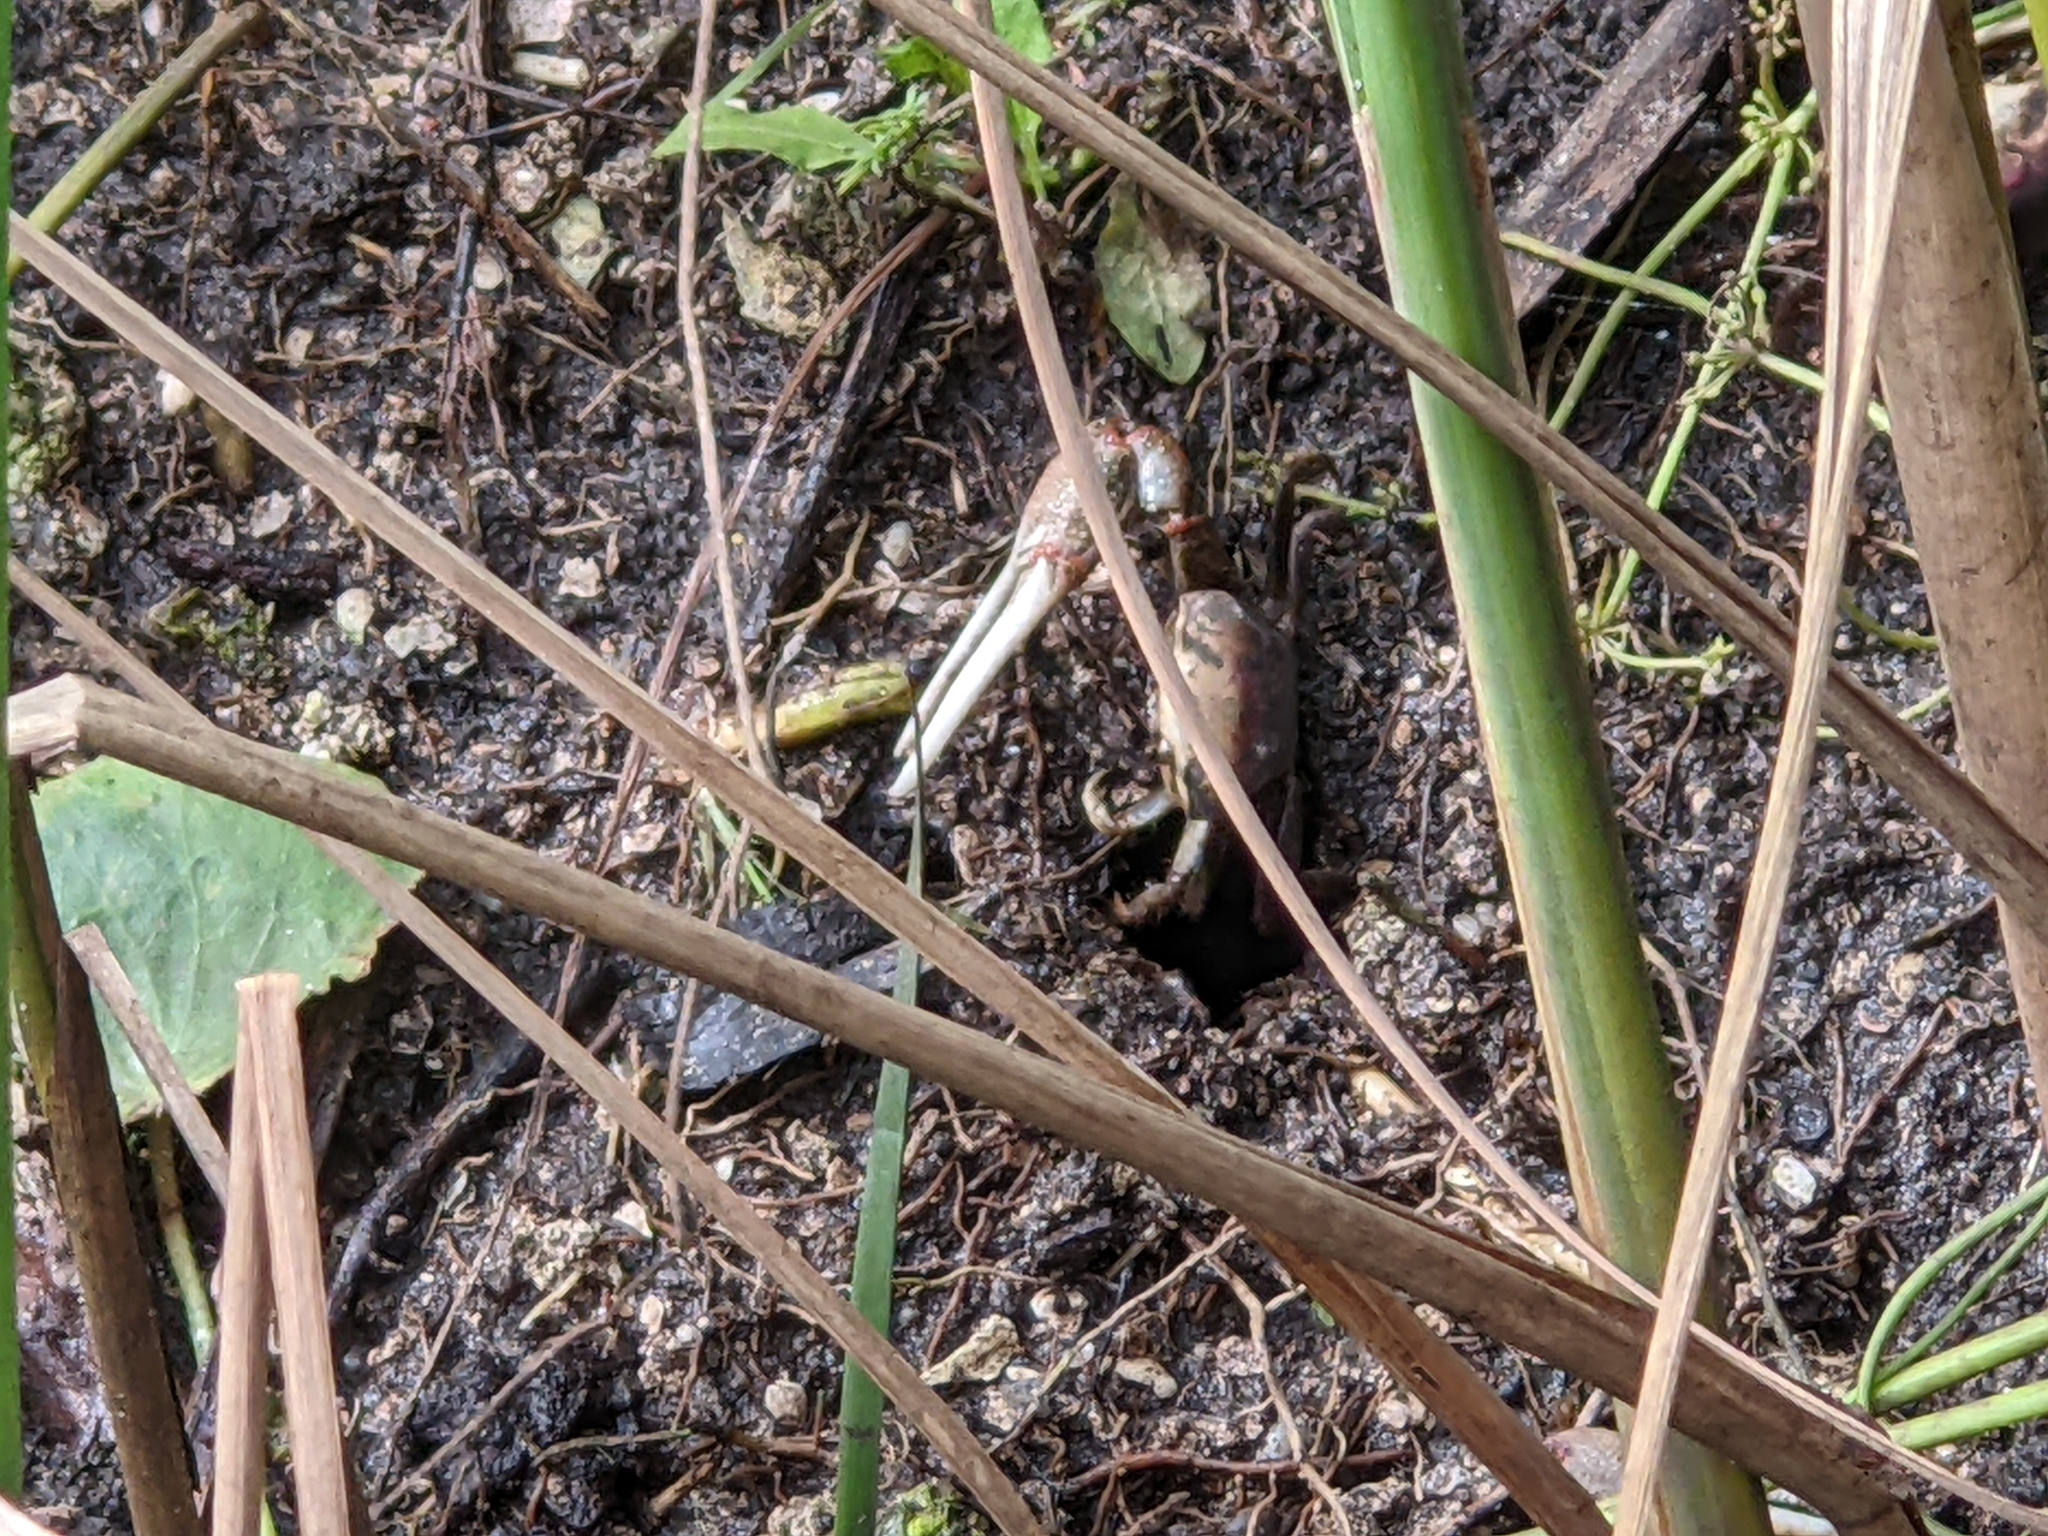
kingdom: Animalia
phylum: Arthropoda
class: Malacostraca
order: Decapoda
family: Ocypodidae
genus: Minuca
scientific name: Minuca minax
